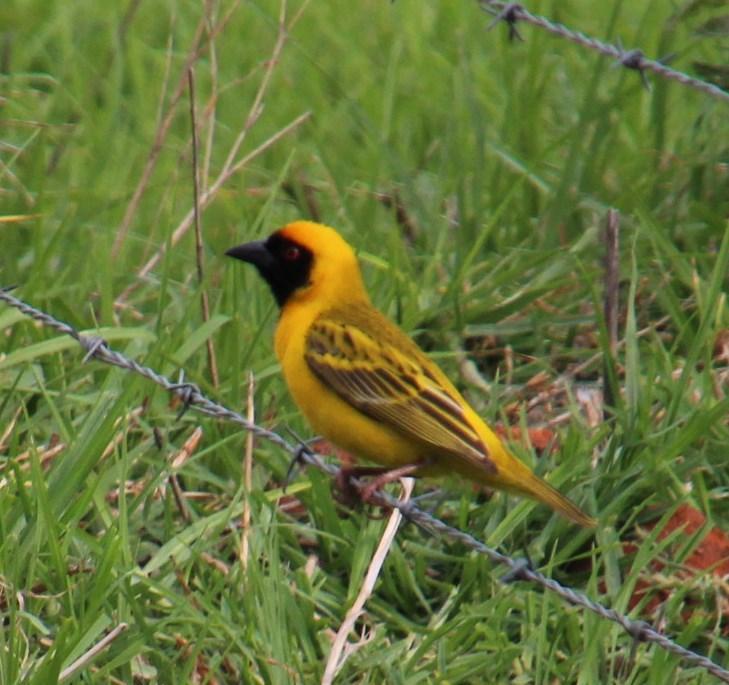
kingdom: Animalia
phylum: Chordata
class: Aves
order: Passeriformes
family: Ploceidae
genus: Ploceus
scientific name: Ploceus velatus
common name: Southern masked weaver
